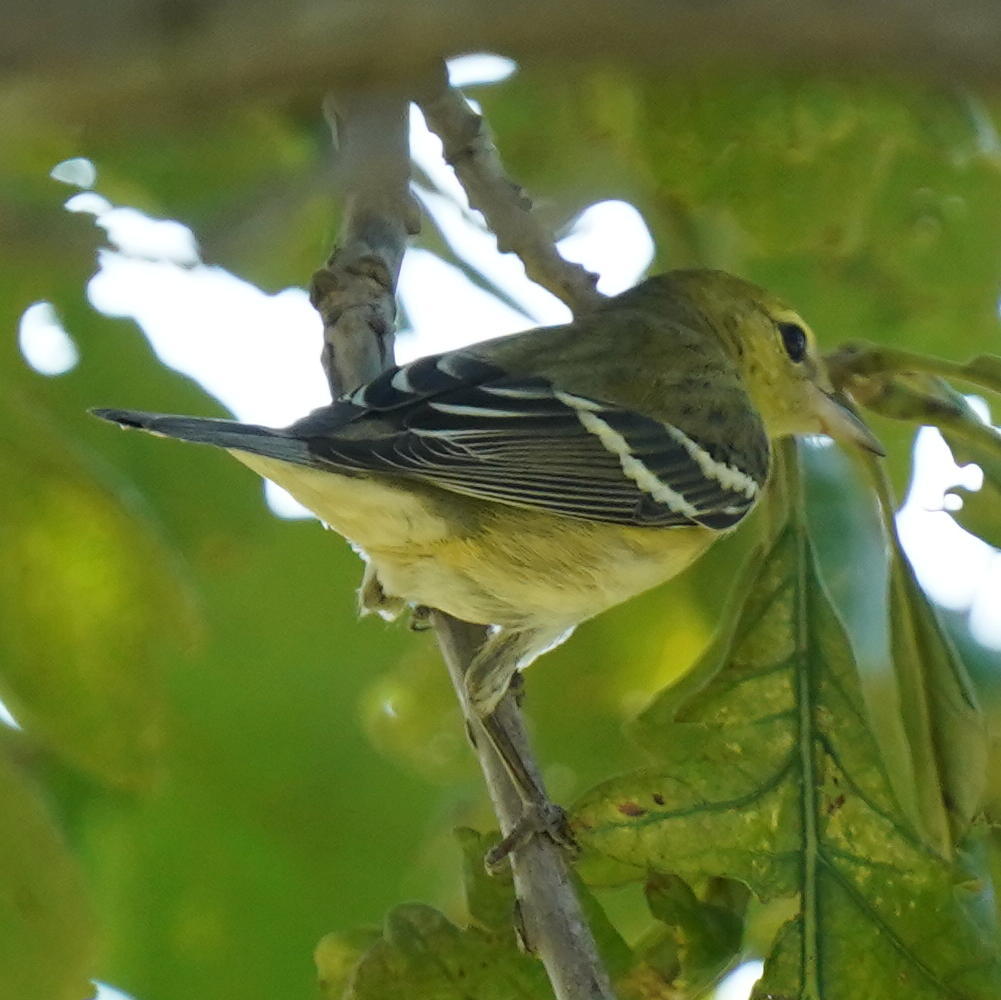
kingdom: Animalia
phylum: Chordata
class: Aves
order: Passeriformes
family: Parulidae
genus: Setophaga
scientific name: Setophaga castanea
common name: Bay-breasted warbler
